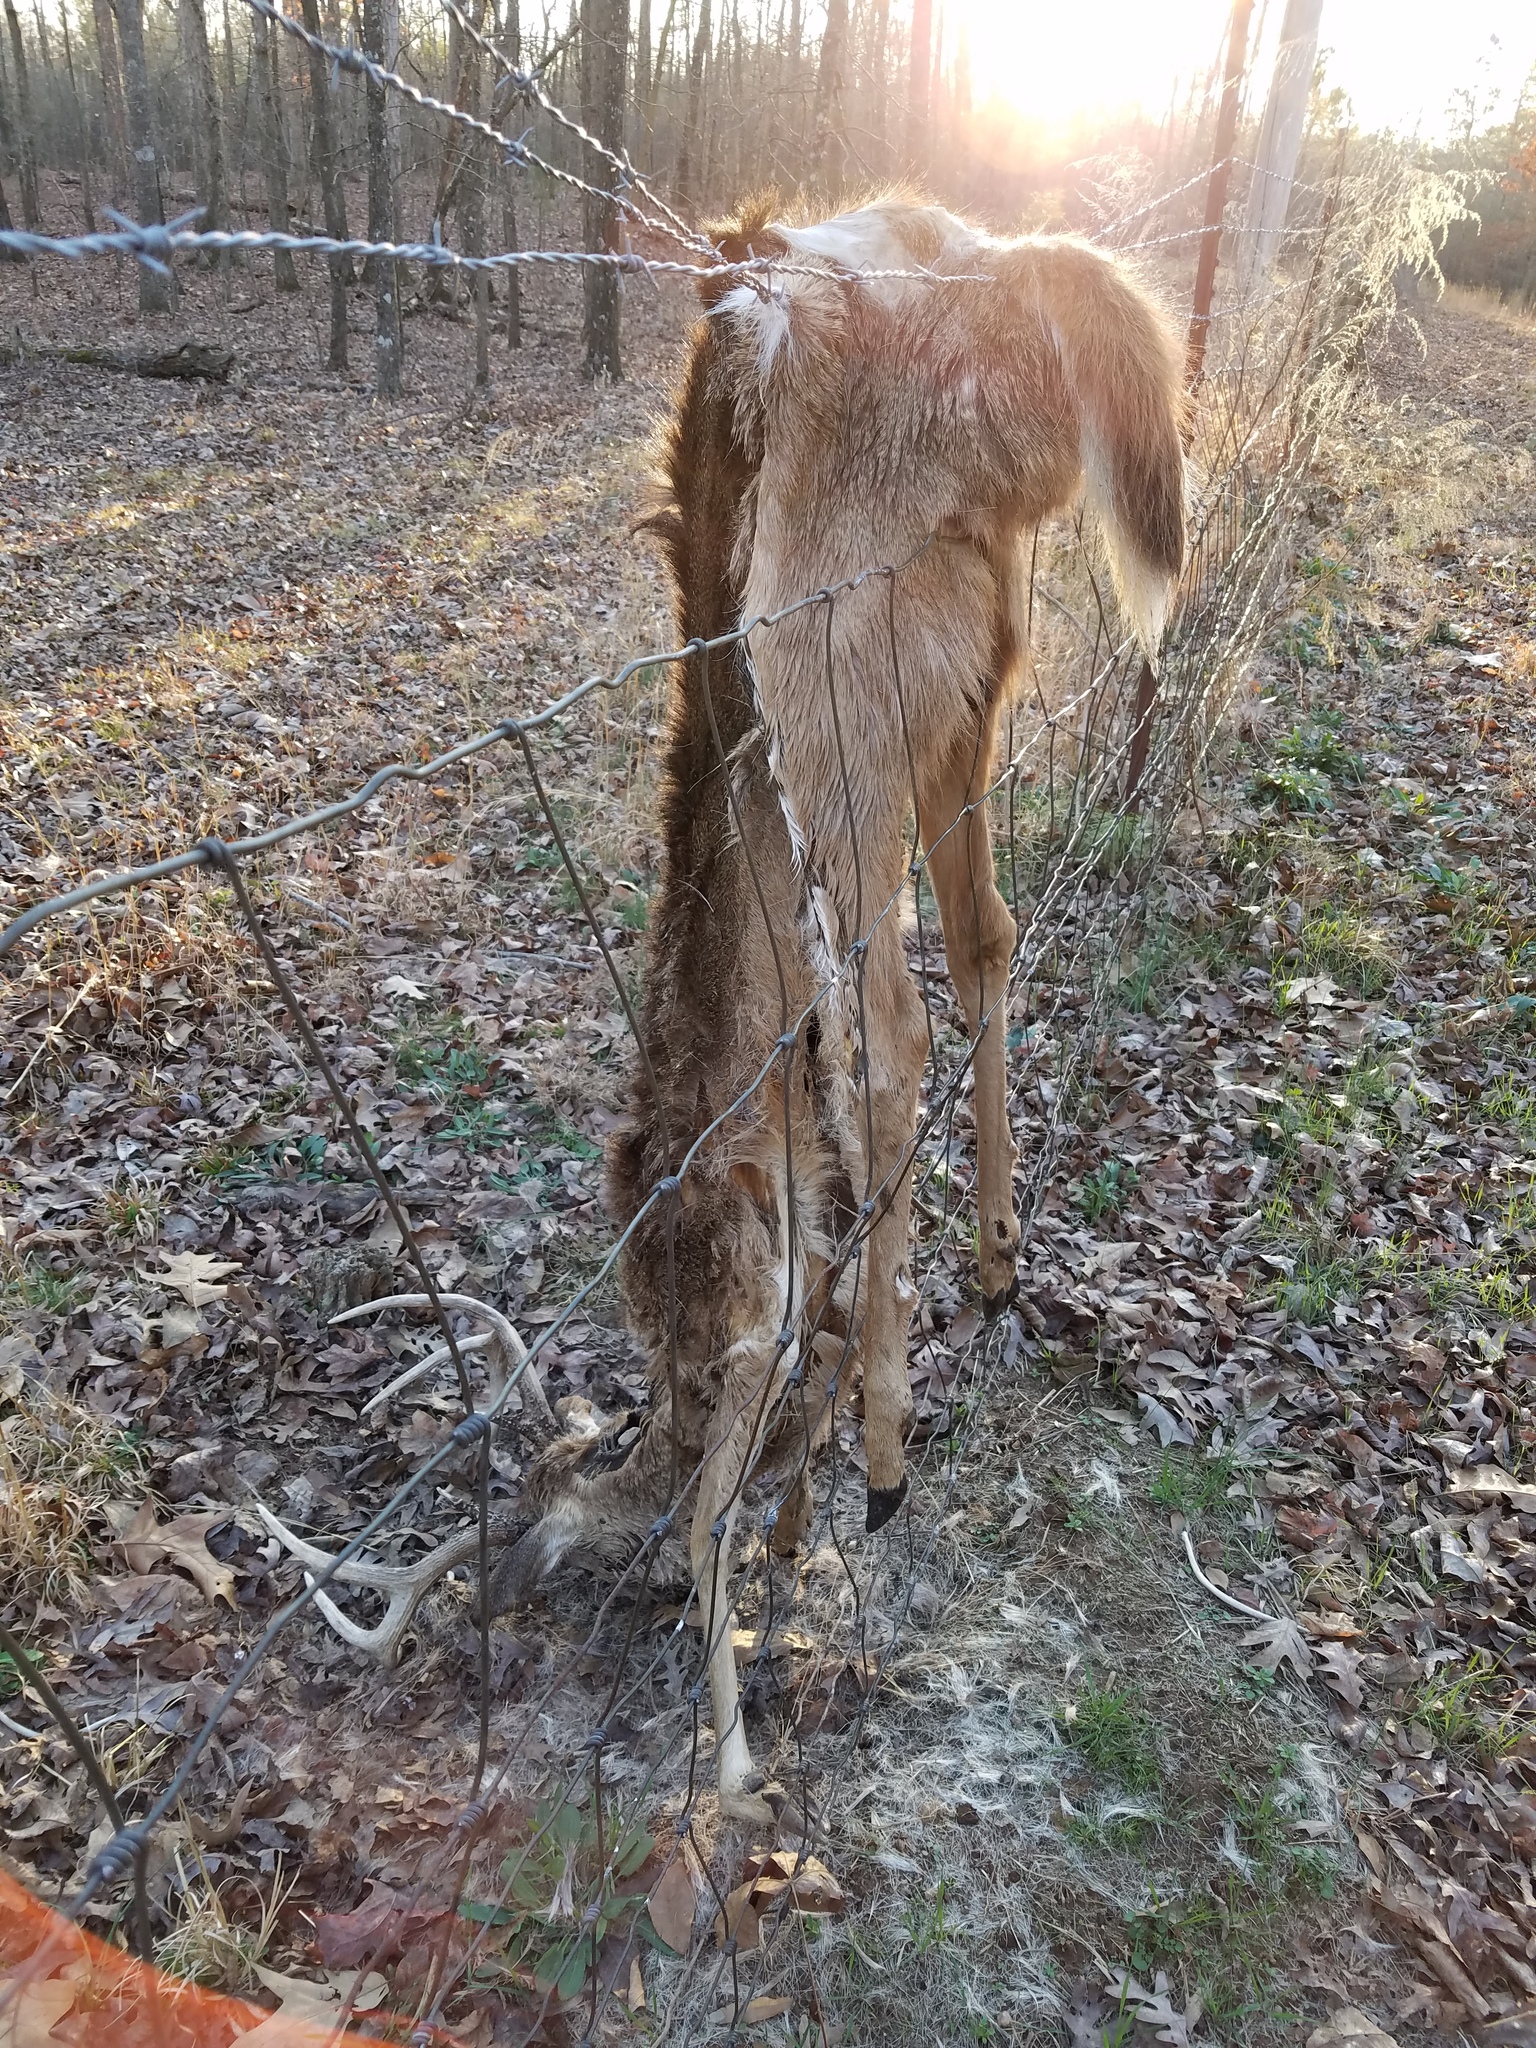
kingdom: Animalia
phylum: Chordata
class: Mammalia
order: Artiodactyla
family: Cervidae
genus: Odocoileus
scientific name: Odocoileus virginianus
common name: White-tailed deer
